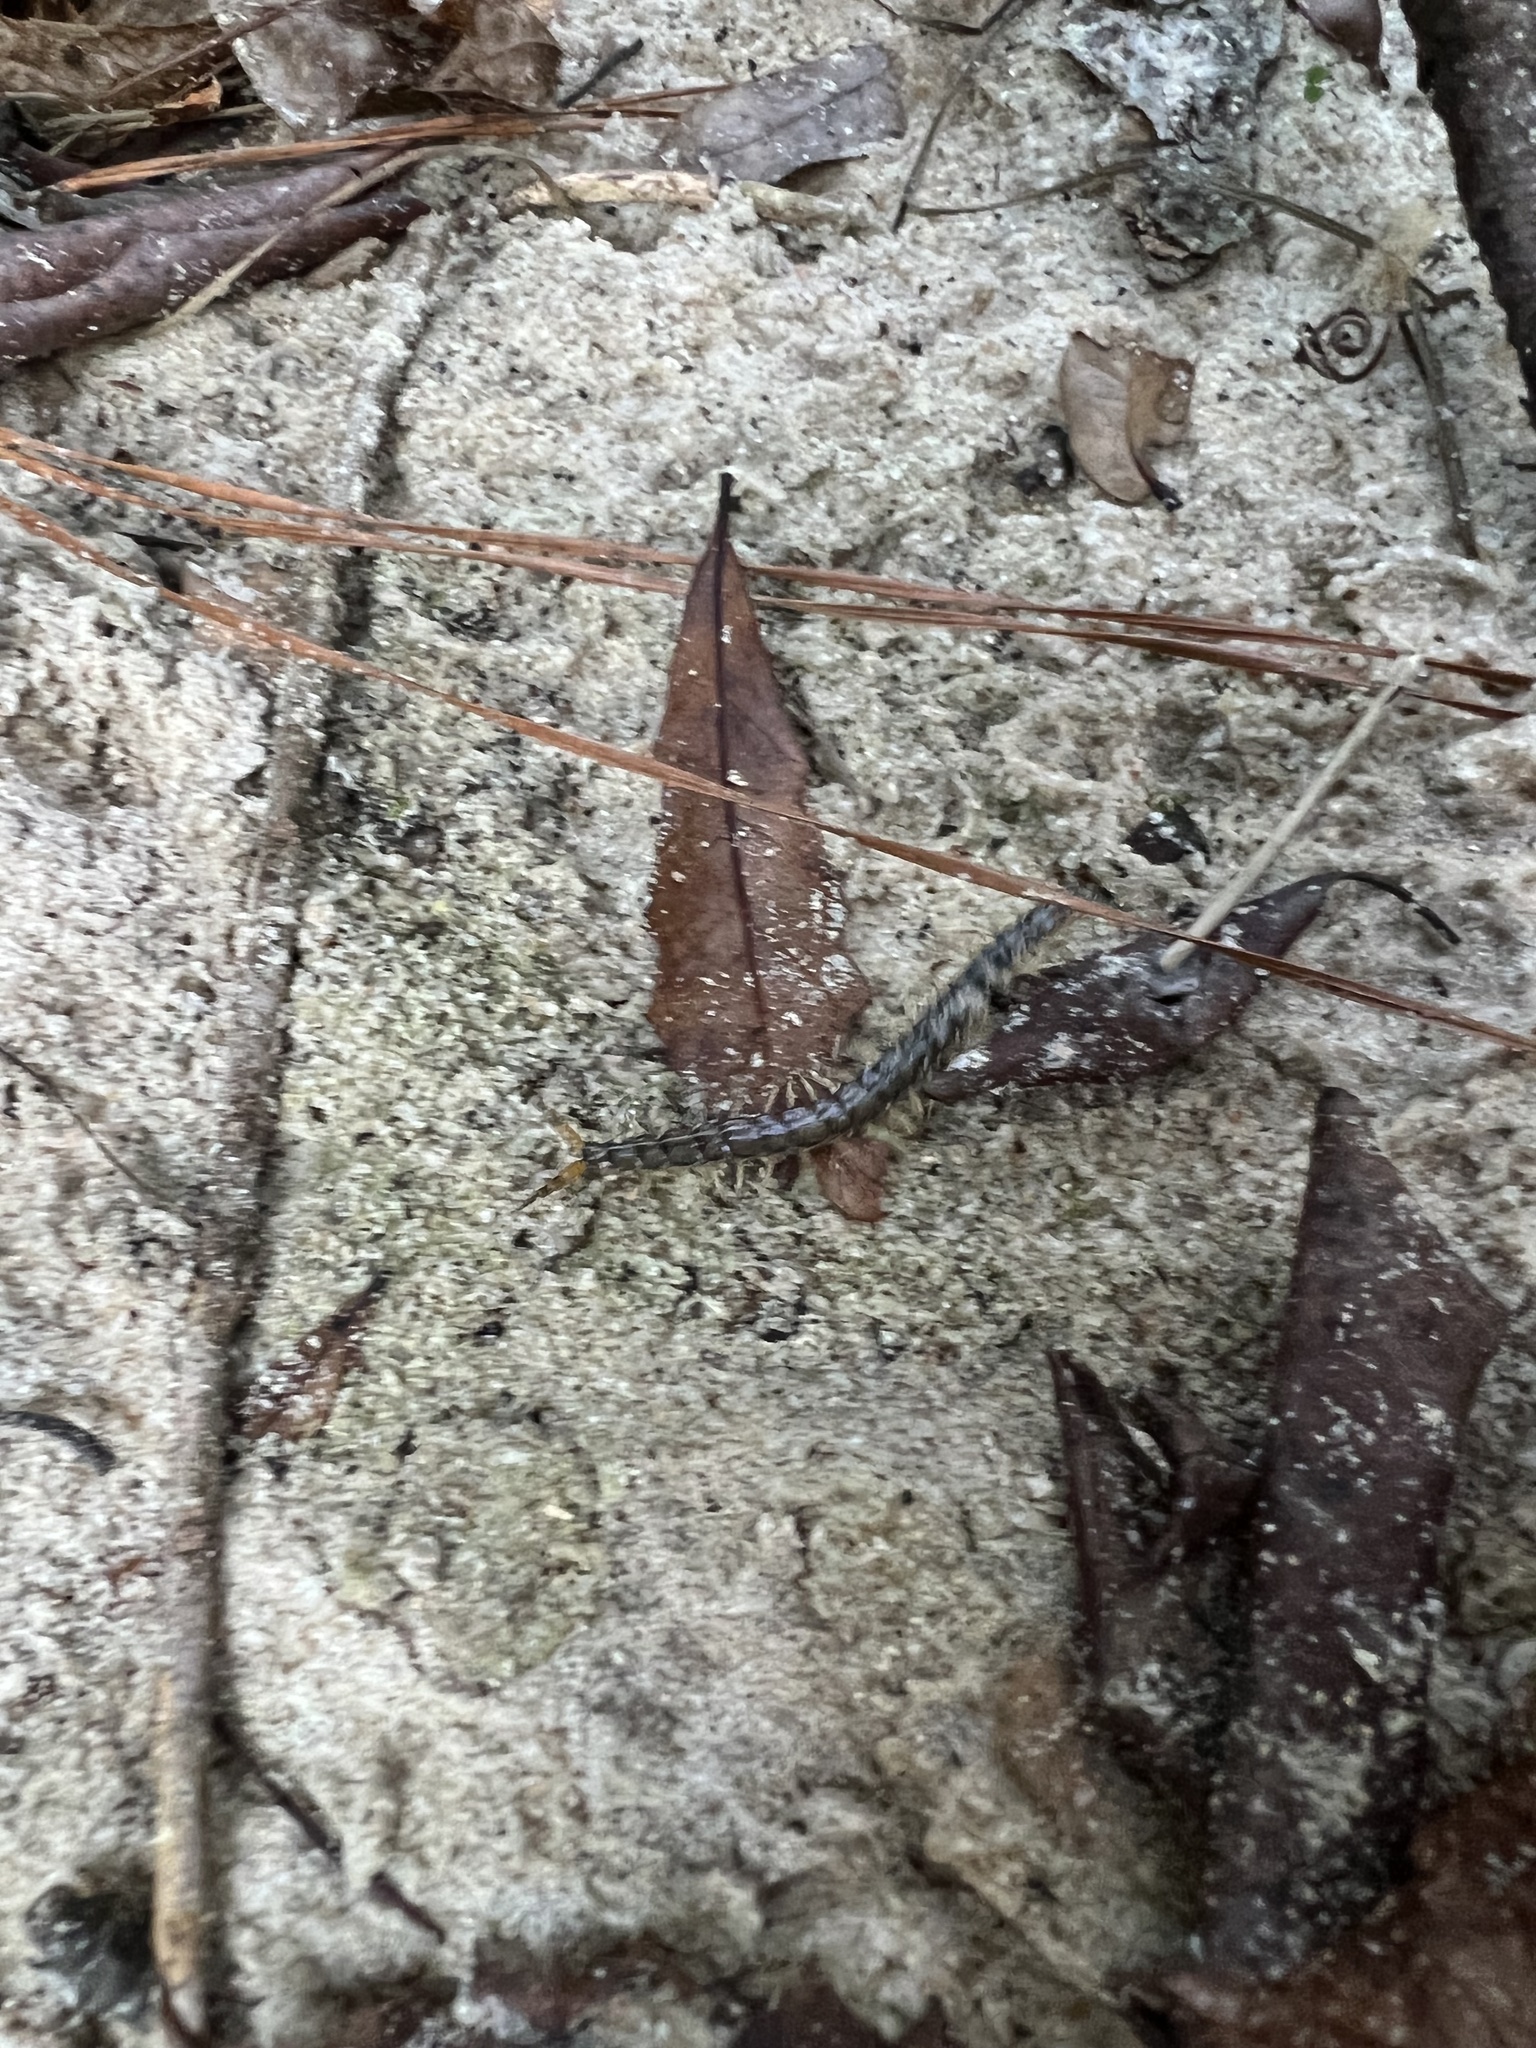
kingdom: Animalia
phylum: Arthropoda
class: Chilopoda
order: Scolopendromorpha
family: Scolopendridae
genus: Hemiscolopendra
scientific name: Hemiscolopendra marginata
